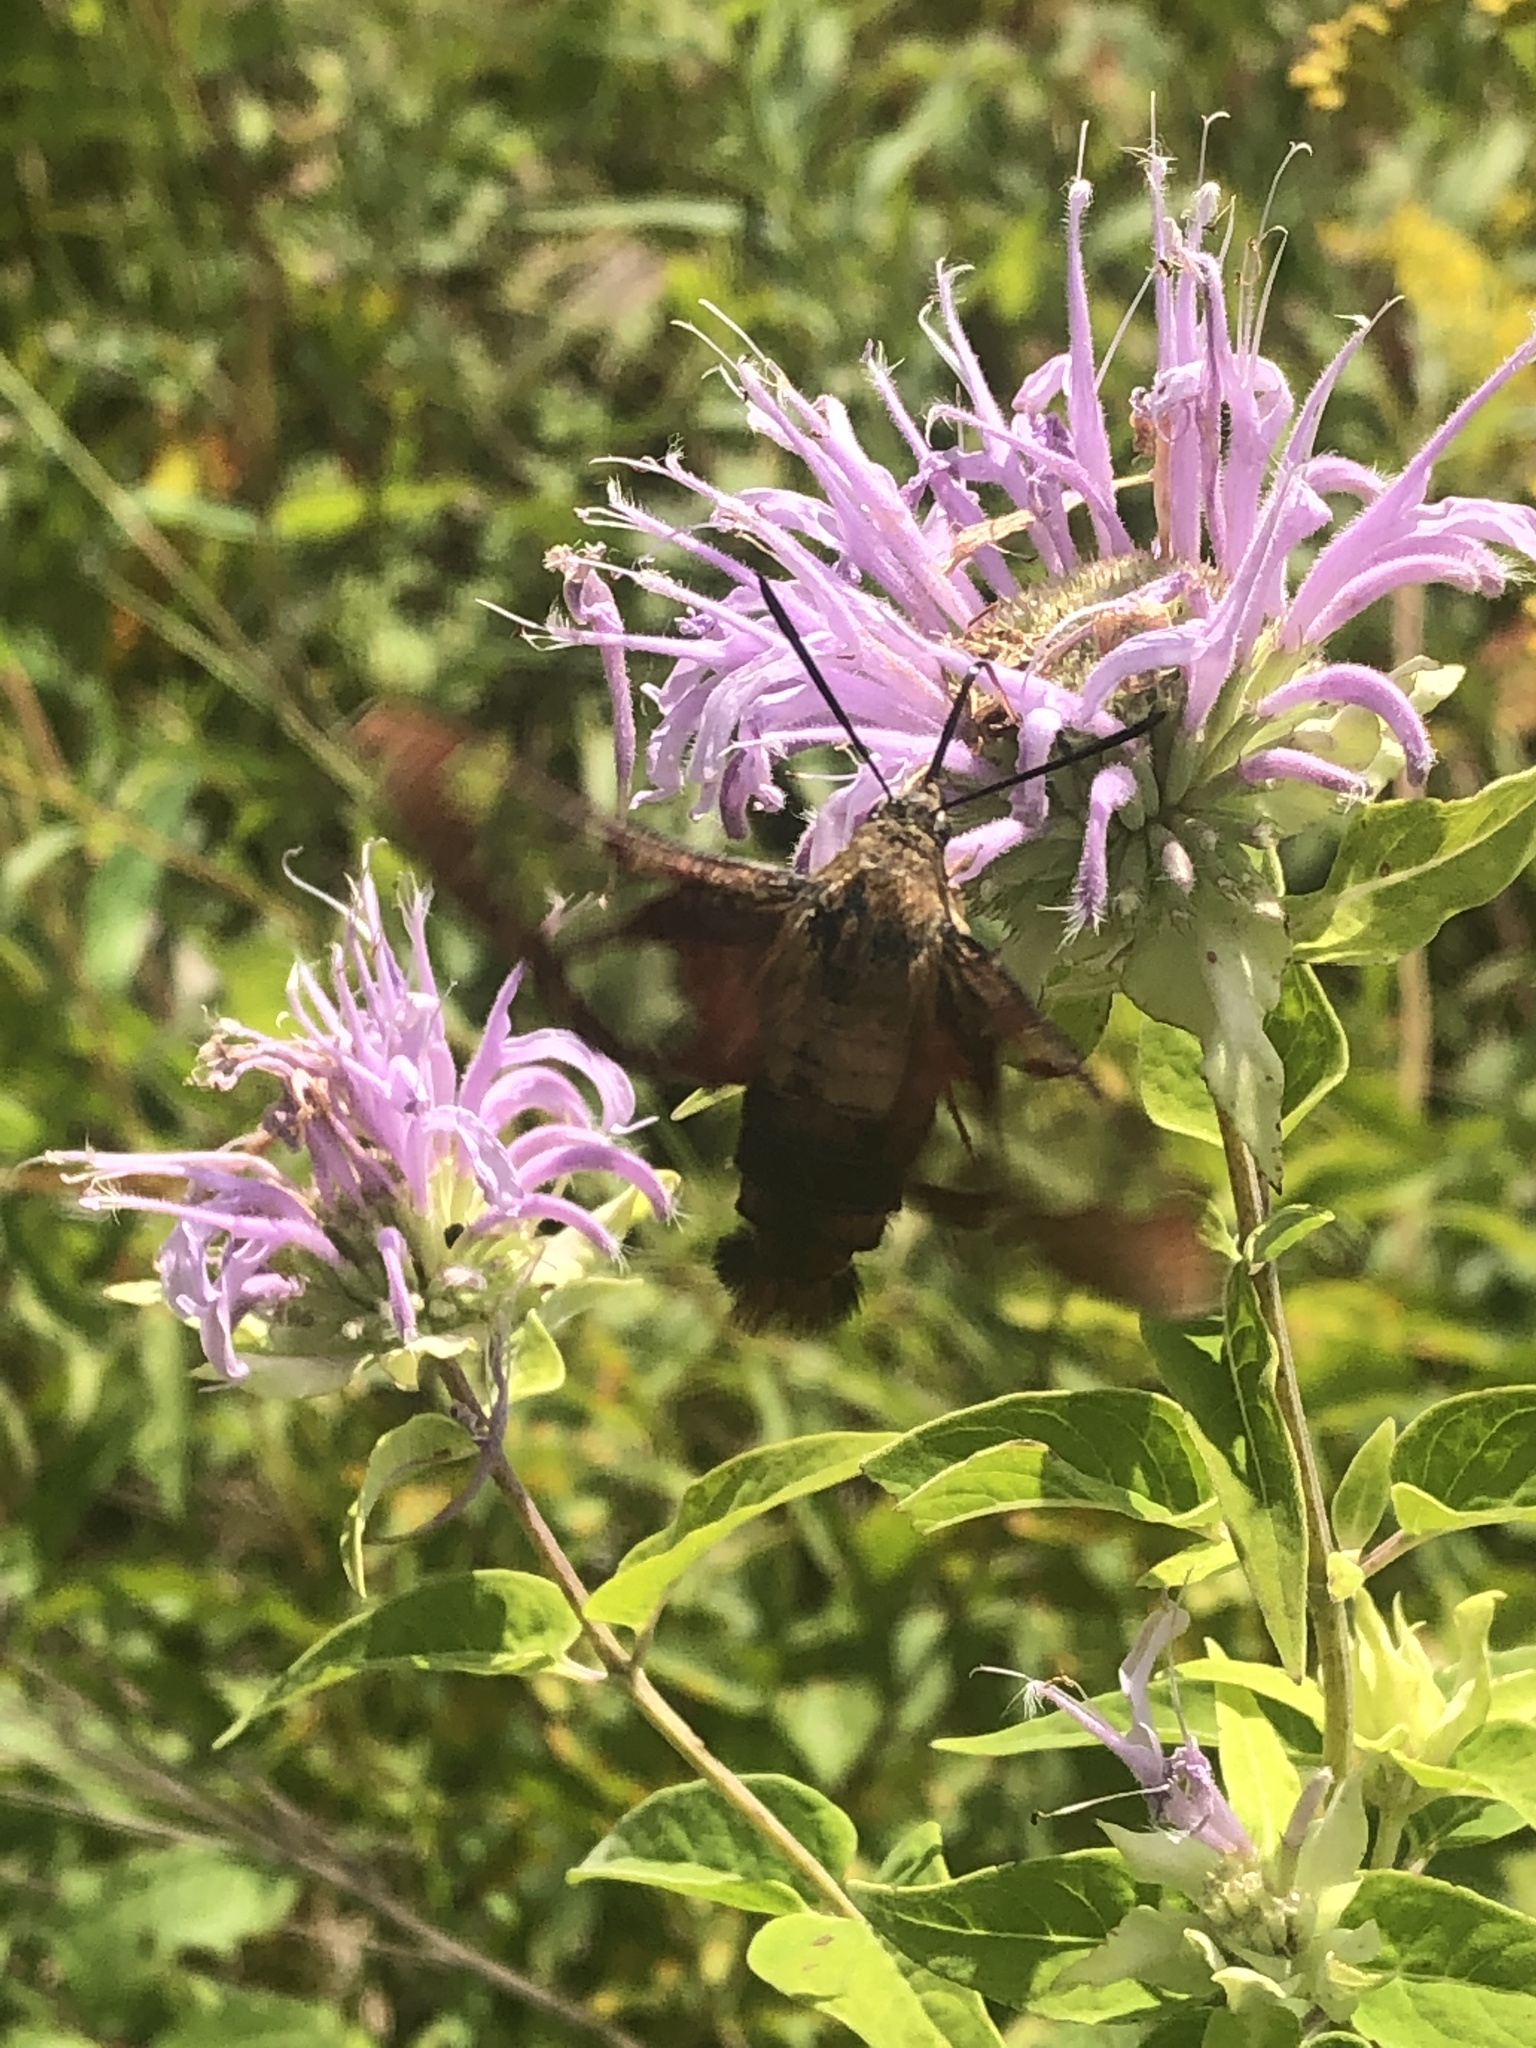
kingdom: Animalia
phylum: Arthropoda
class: Insecta
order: Lepidoptera
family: Sphingidae
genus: Hemaris
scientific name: Hemaris thysbe
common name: Common clear-wing
